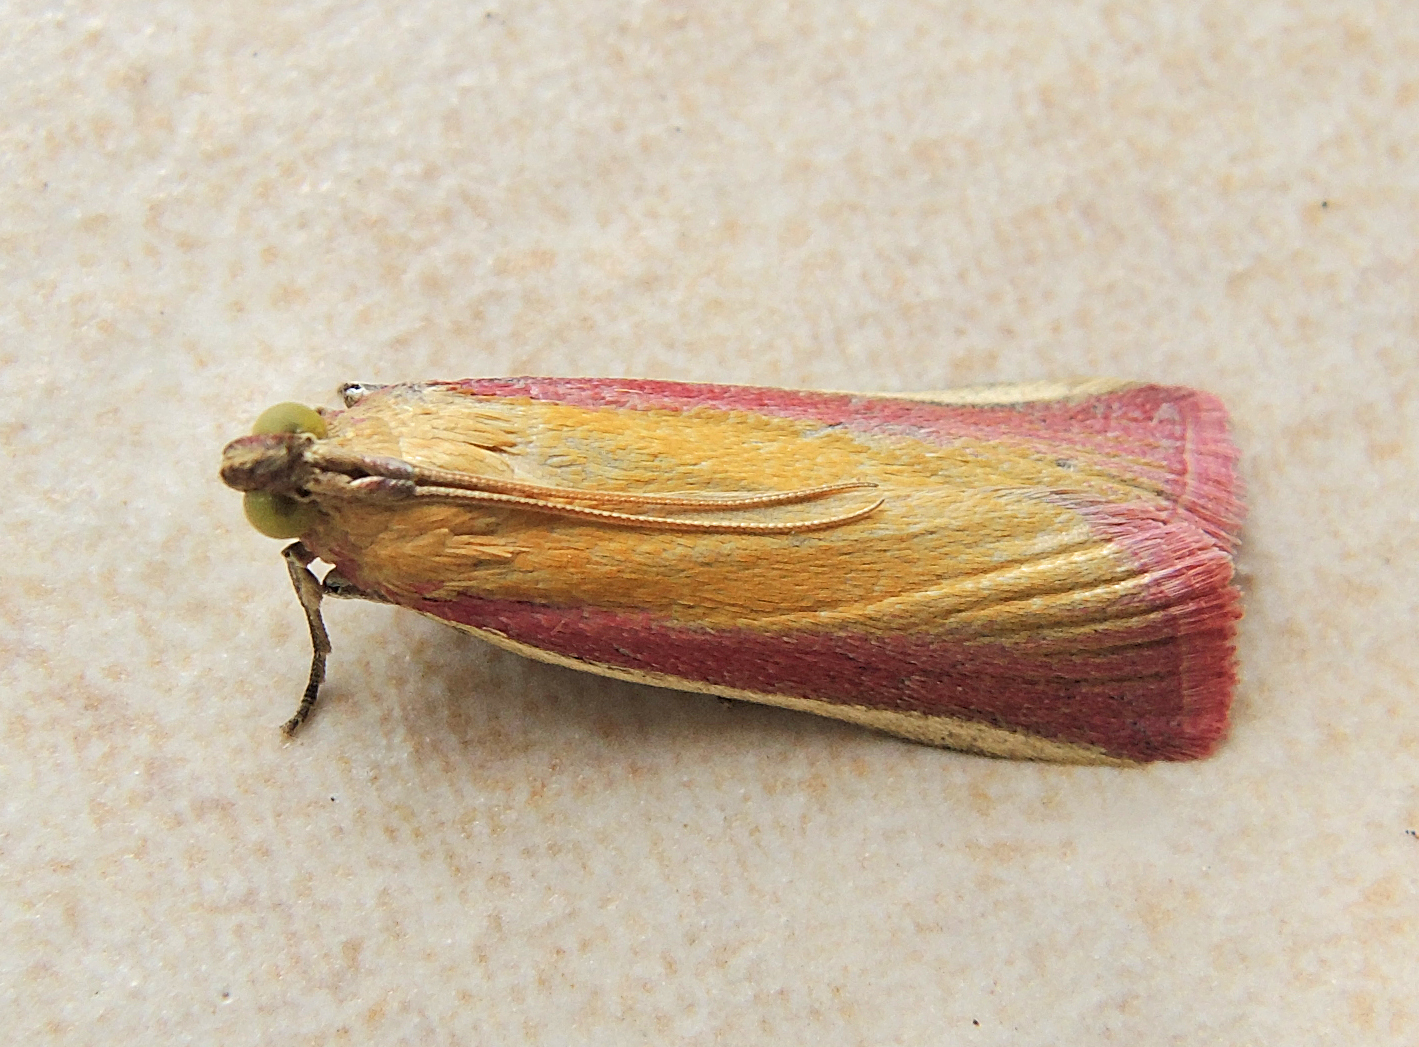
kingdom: Animalia
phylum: Arthropoda
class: Insecta
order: Lepidoptera
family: Pyralidae
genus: Oncocera
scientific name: Oncocera semirubella
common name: Rosy-striped knot-horn
